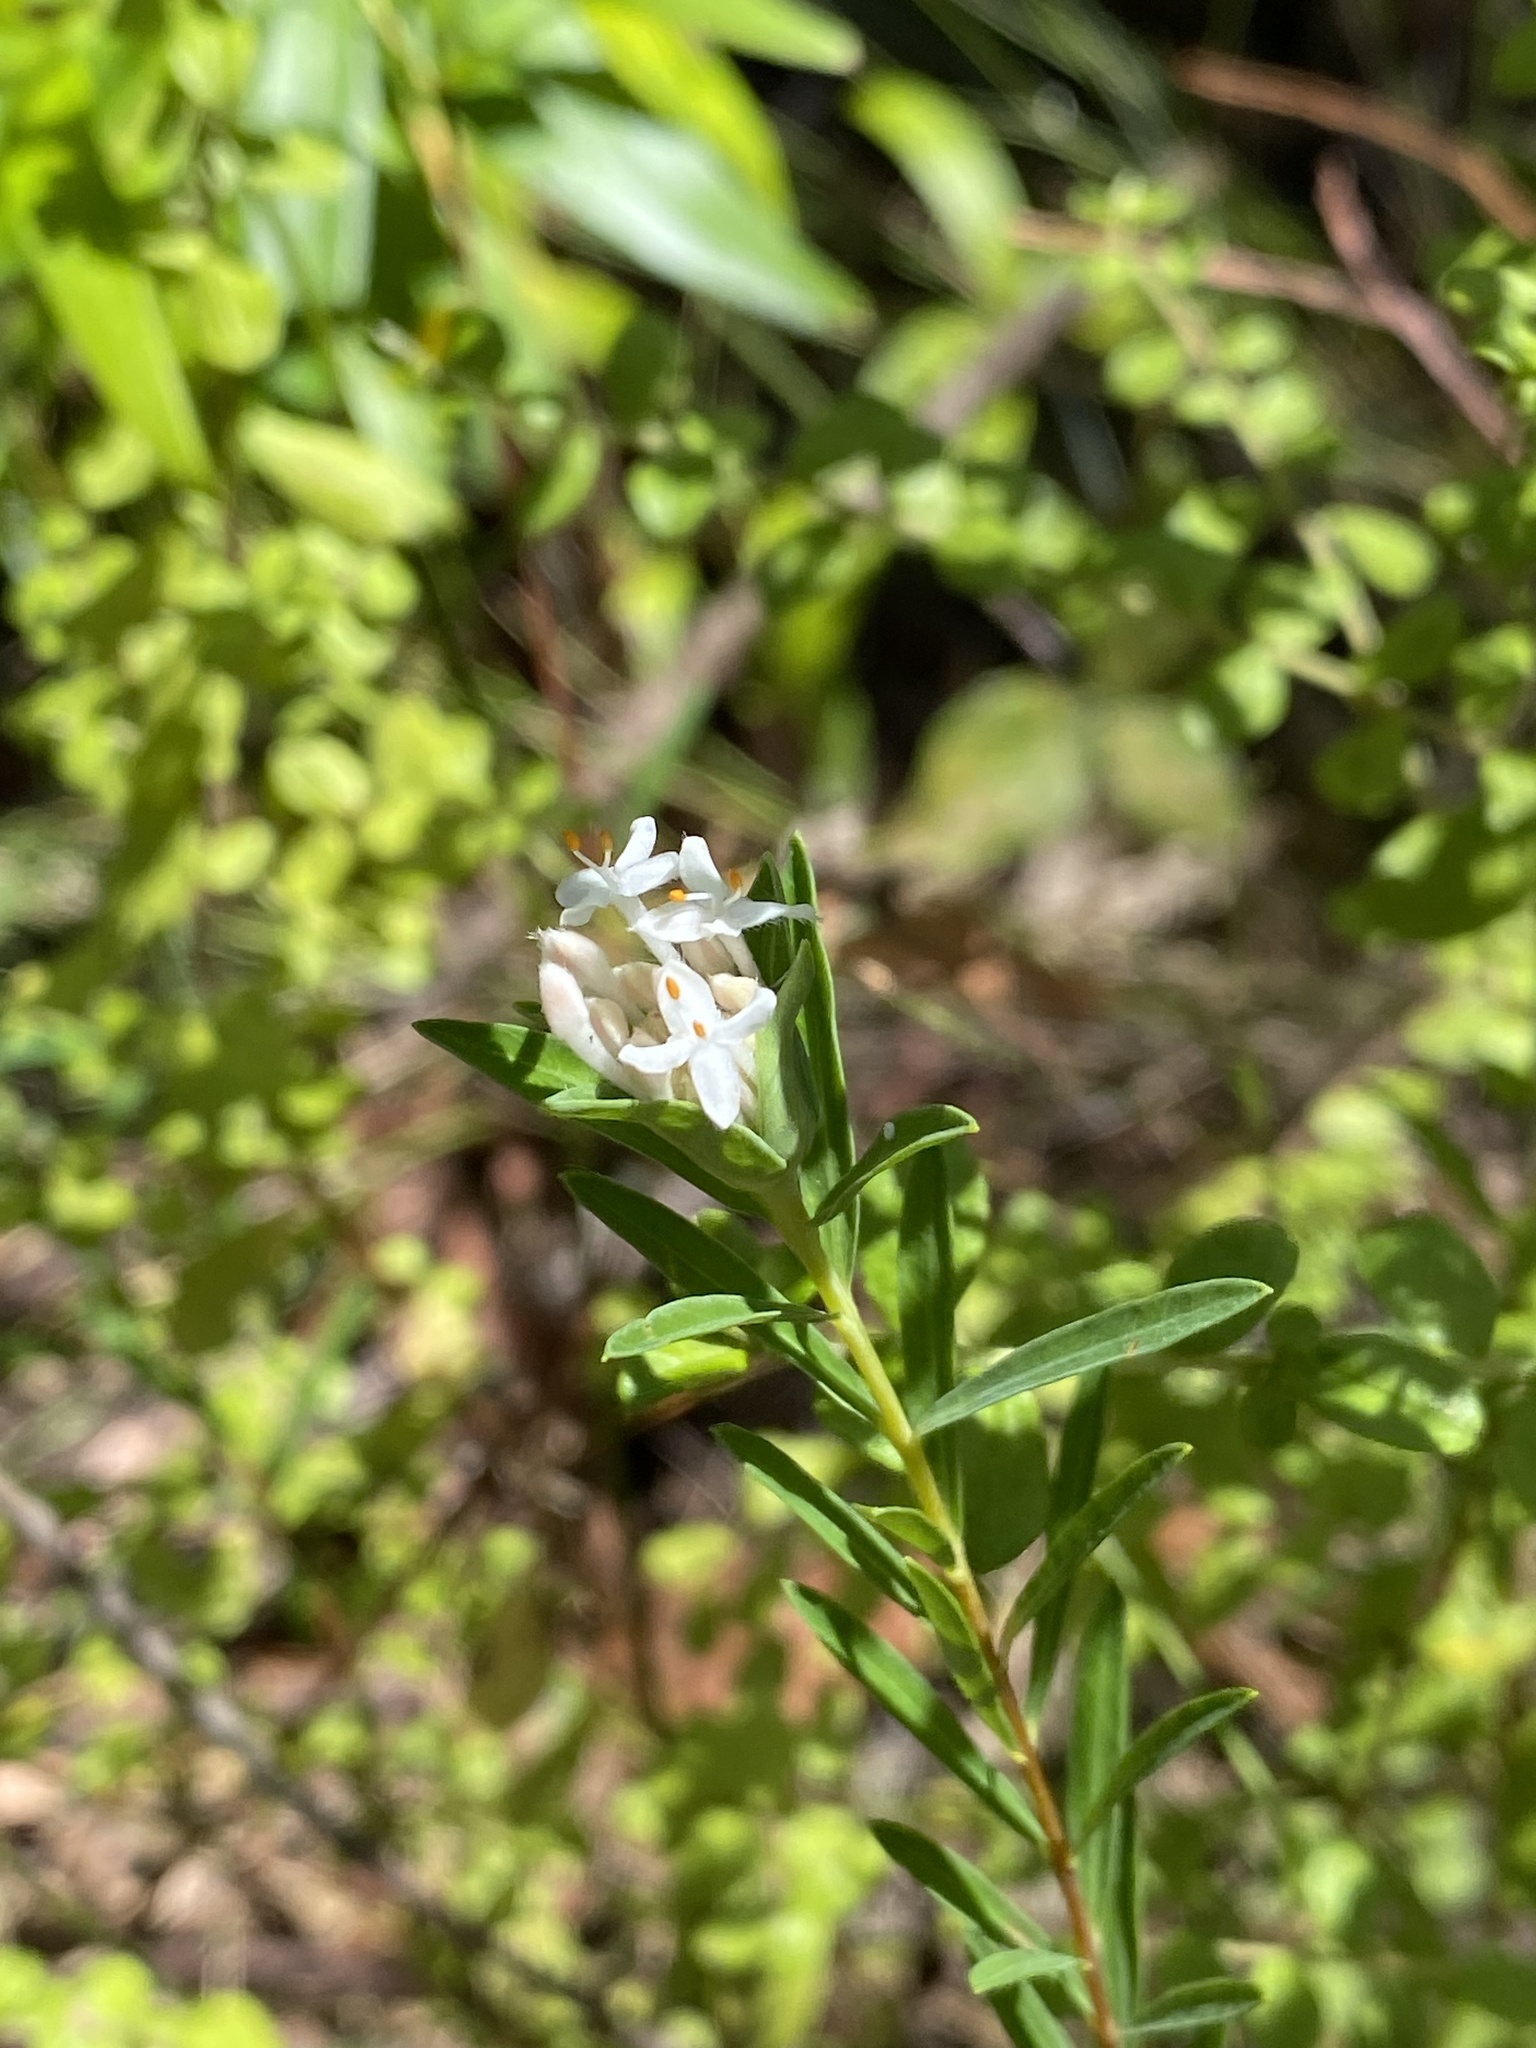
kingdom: Plantae
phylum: Tracheophyta
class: Magnoliopsida
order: Malvales
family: Thymelaeaceae
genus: Pimelea
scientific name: Pimelea linifolia
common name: Queen-of-the-bush
